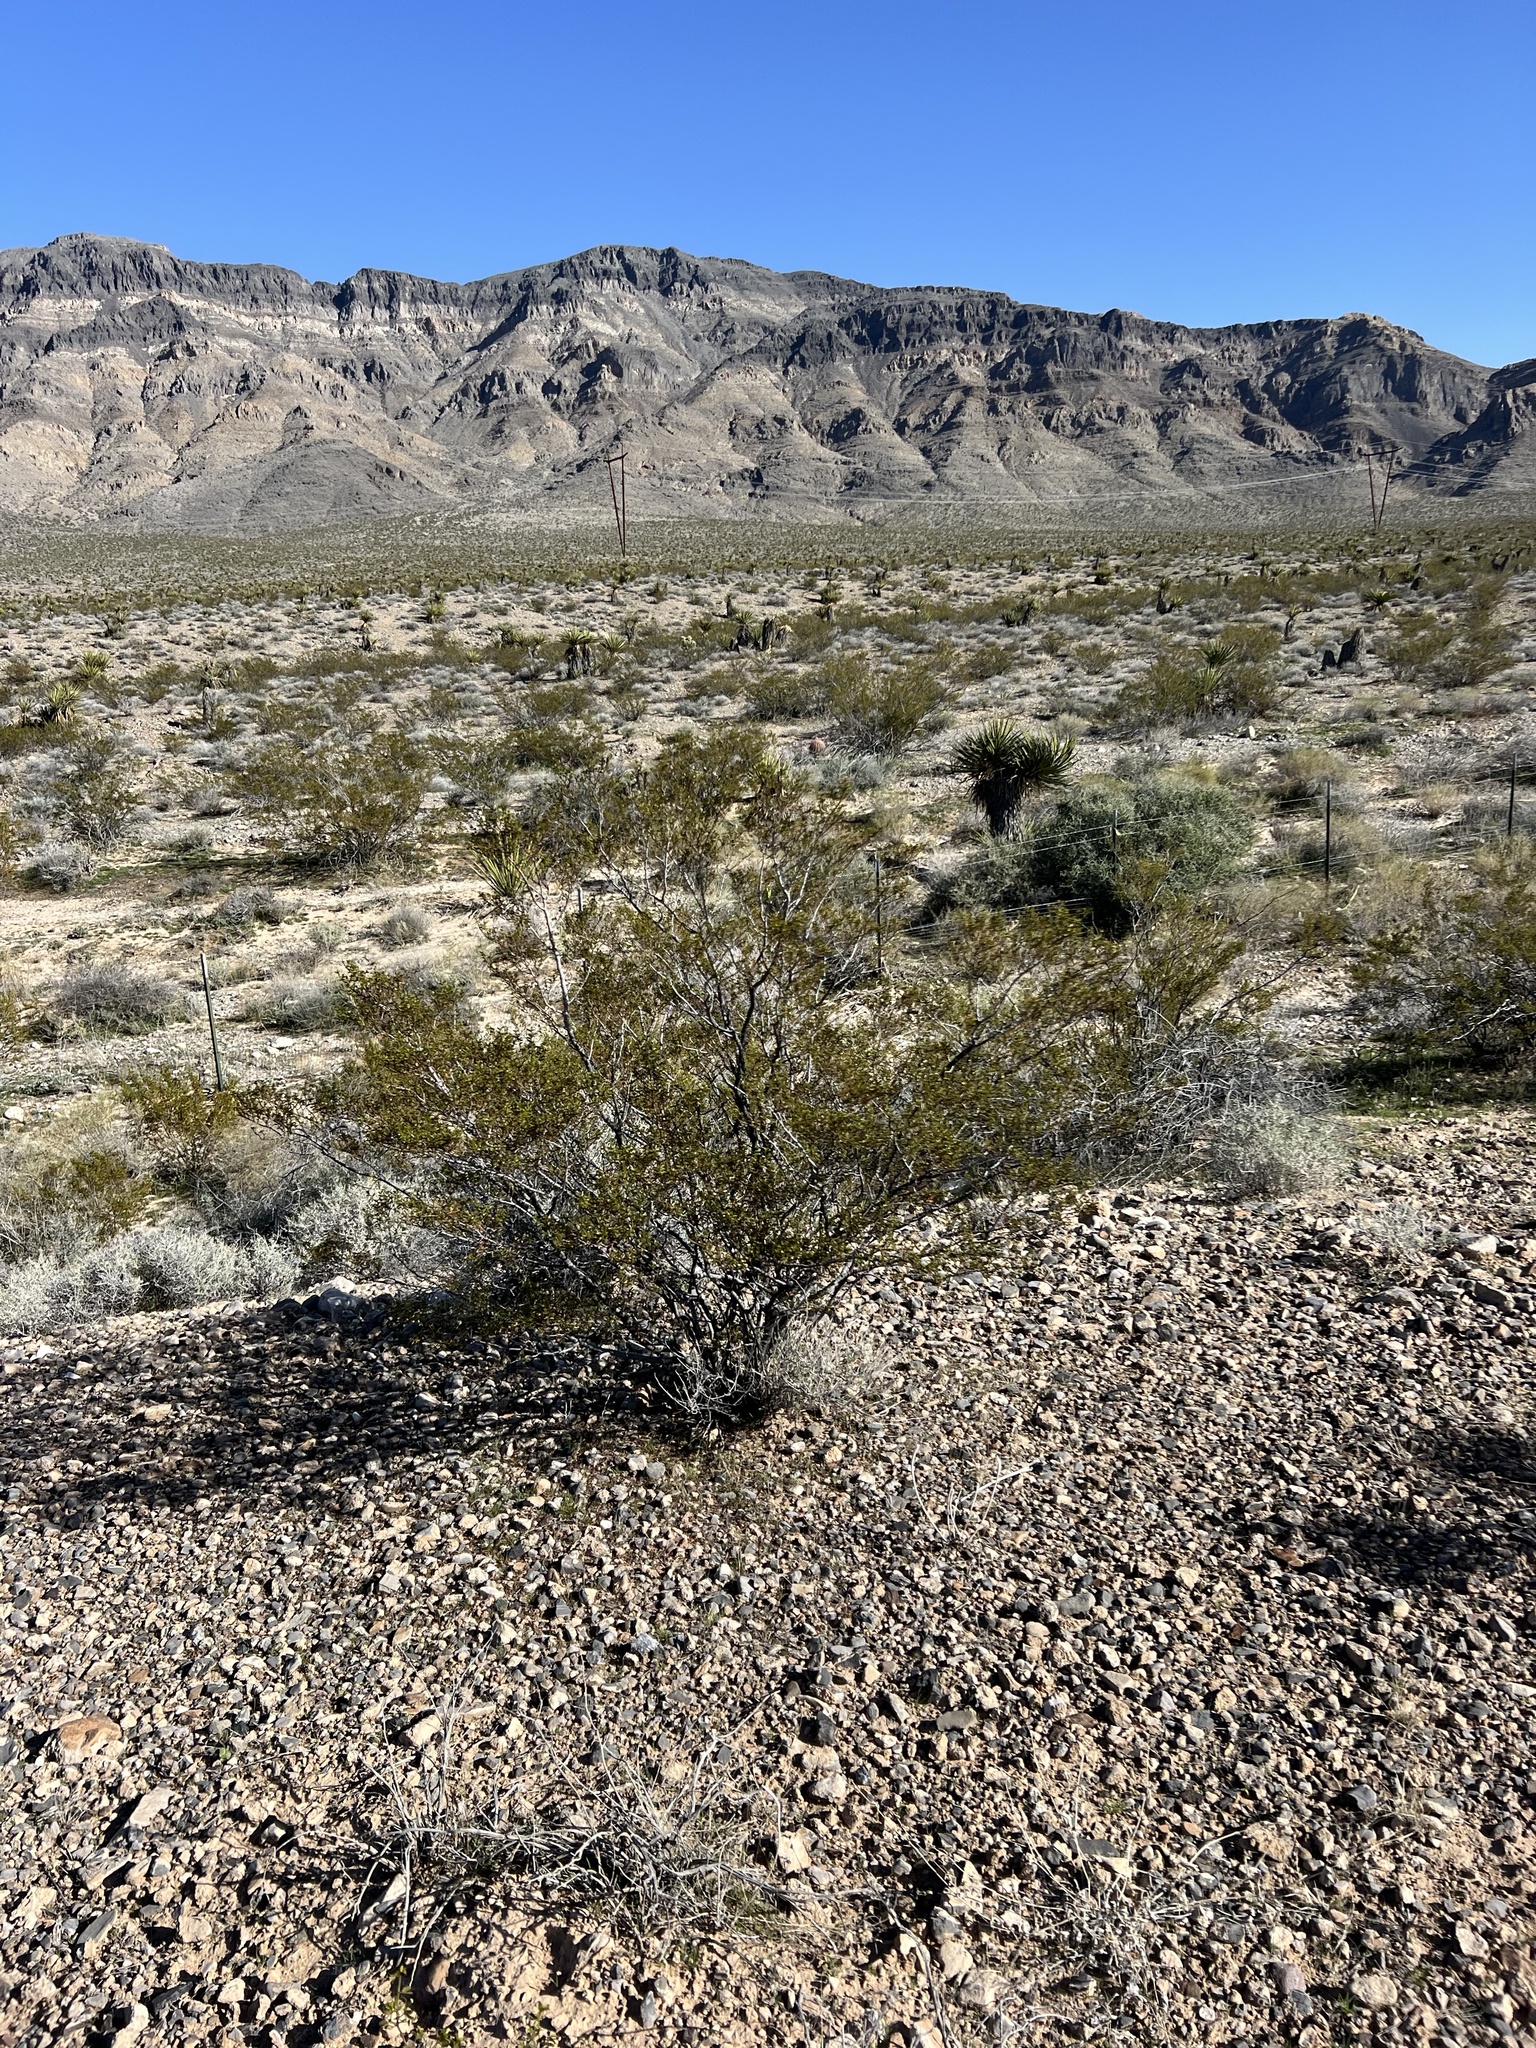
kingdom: Plantae
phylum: Tracheophyta
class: Magnoliopsida
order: Zygophyllales
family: Zygophyllaceae
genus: Larrea
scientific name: Larrea tridentata
